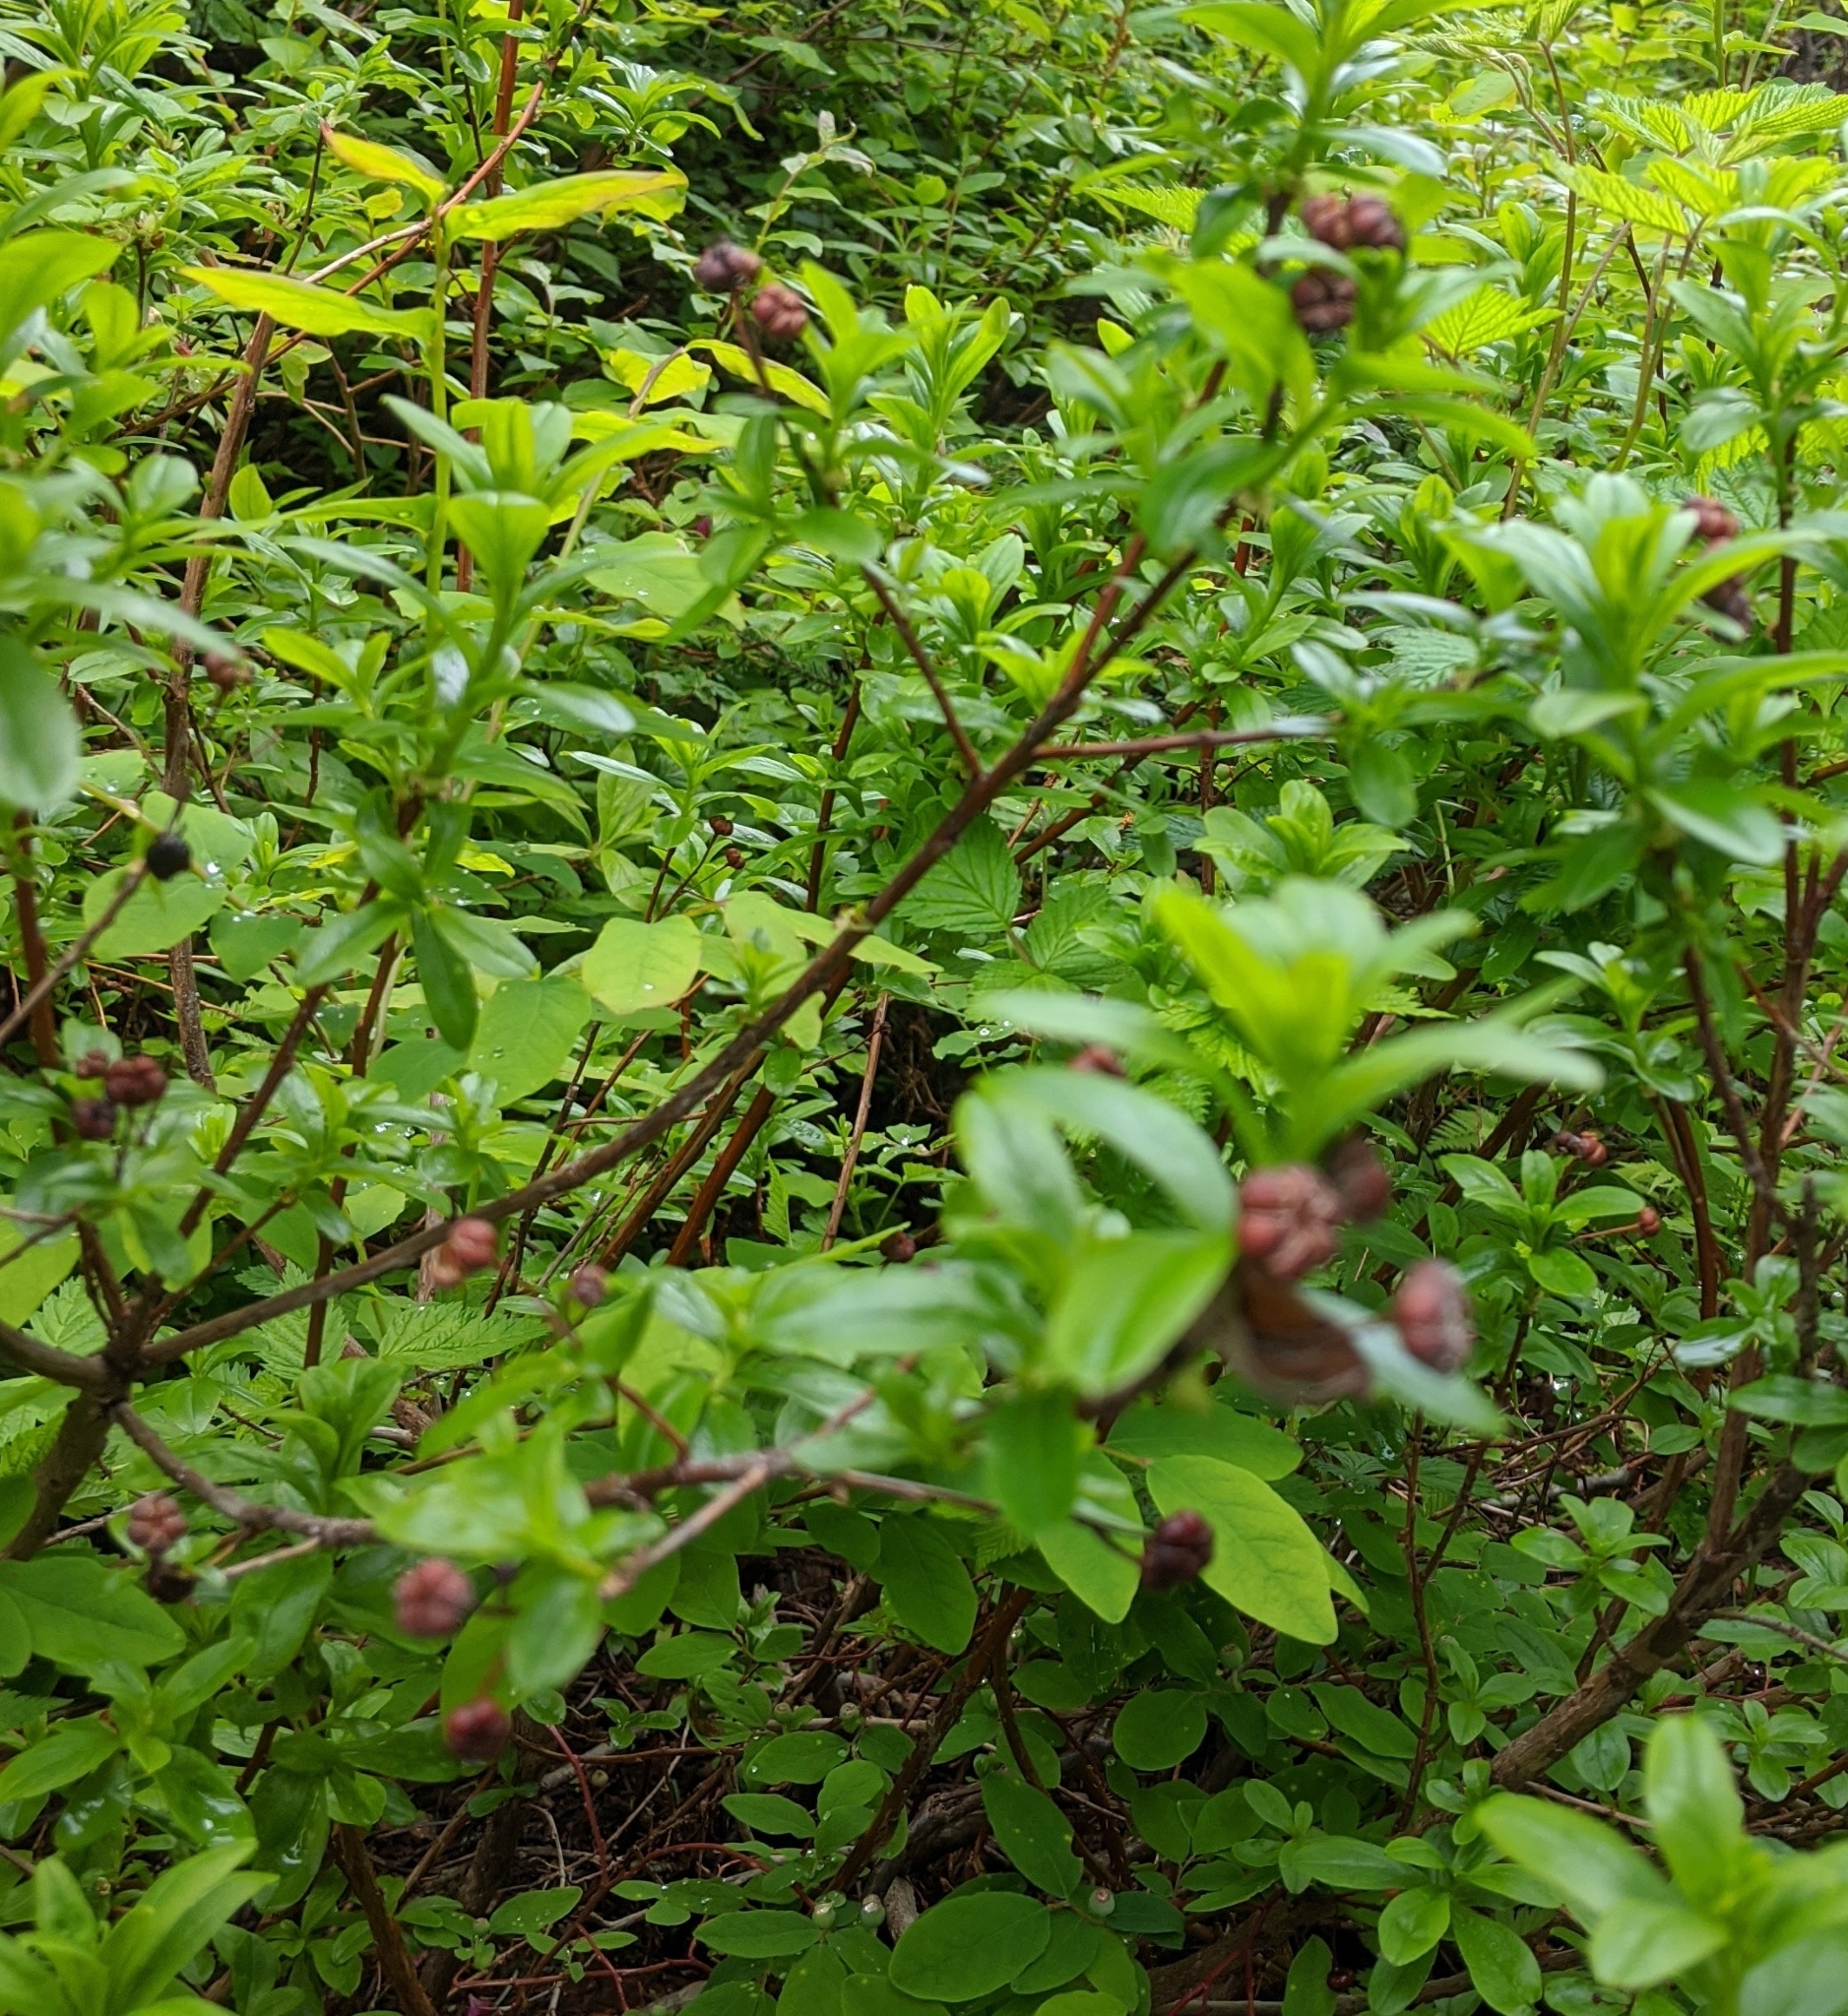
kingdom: Plantae
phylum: Tracheophyta
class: Magnoliopsida
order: Ericales
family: Ericaceae
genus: Elliottia
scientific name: Elliottia pyroliflora
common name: Copperbush
